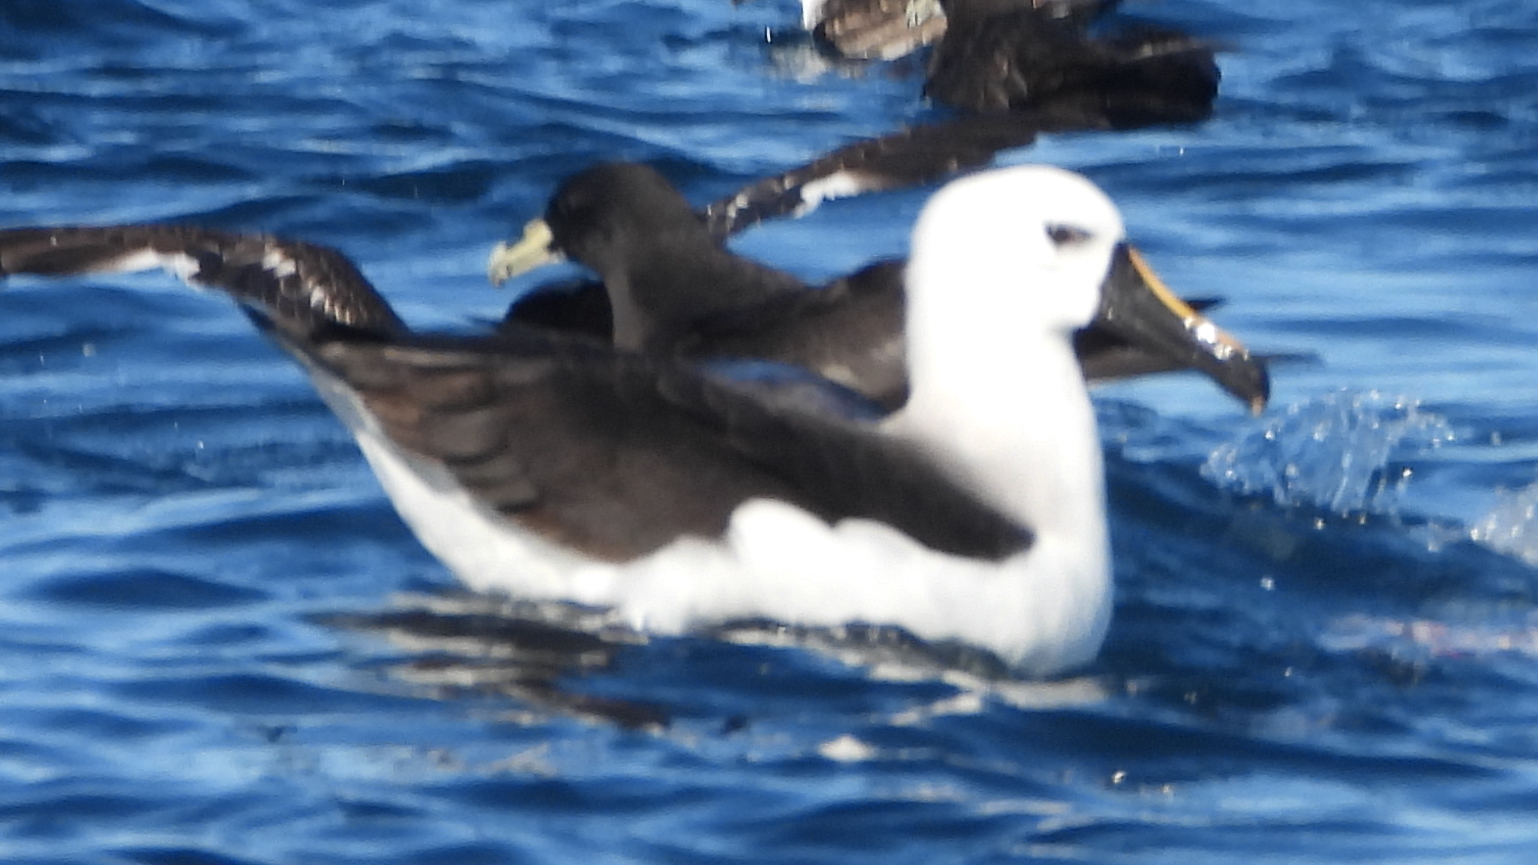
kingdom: Animalia
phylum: Chordata
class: Aves
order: Procellariiformes
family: Diomedeidae
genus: Thalassarche
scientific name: Thalassarche carteri
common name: Indian yellow-nosed albatross
